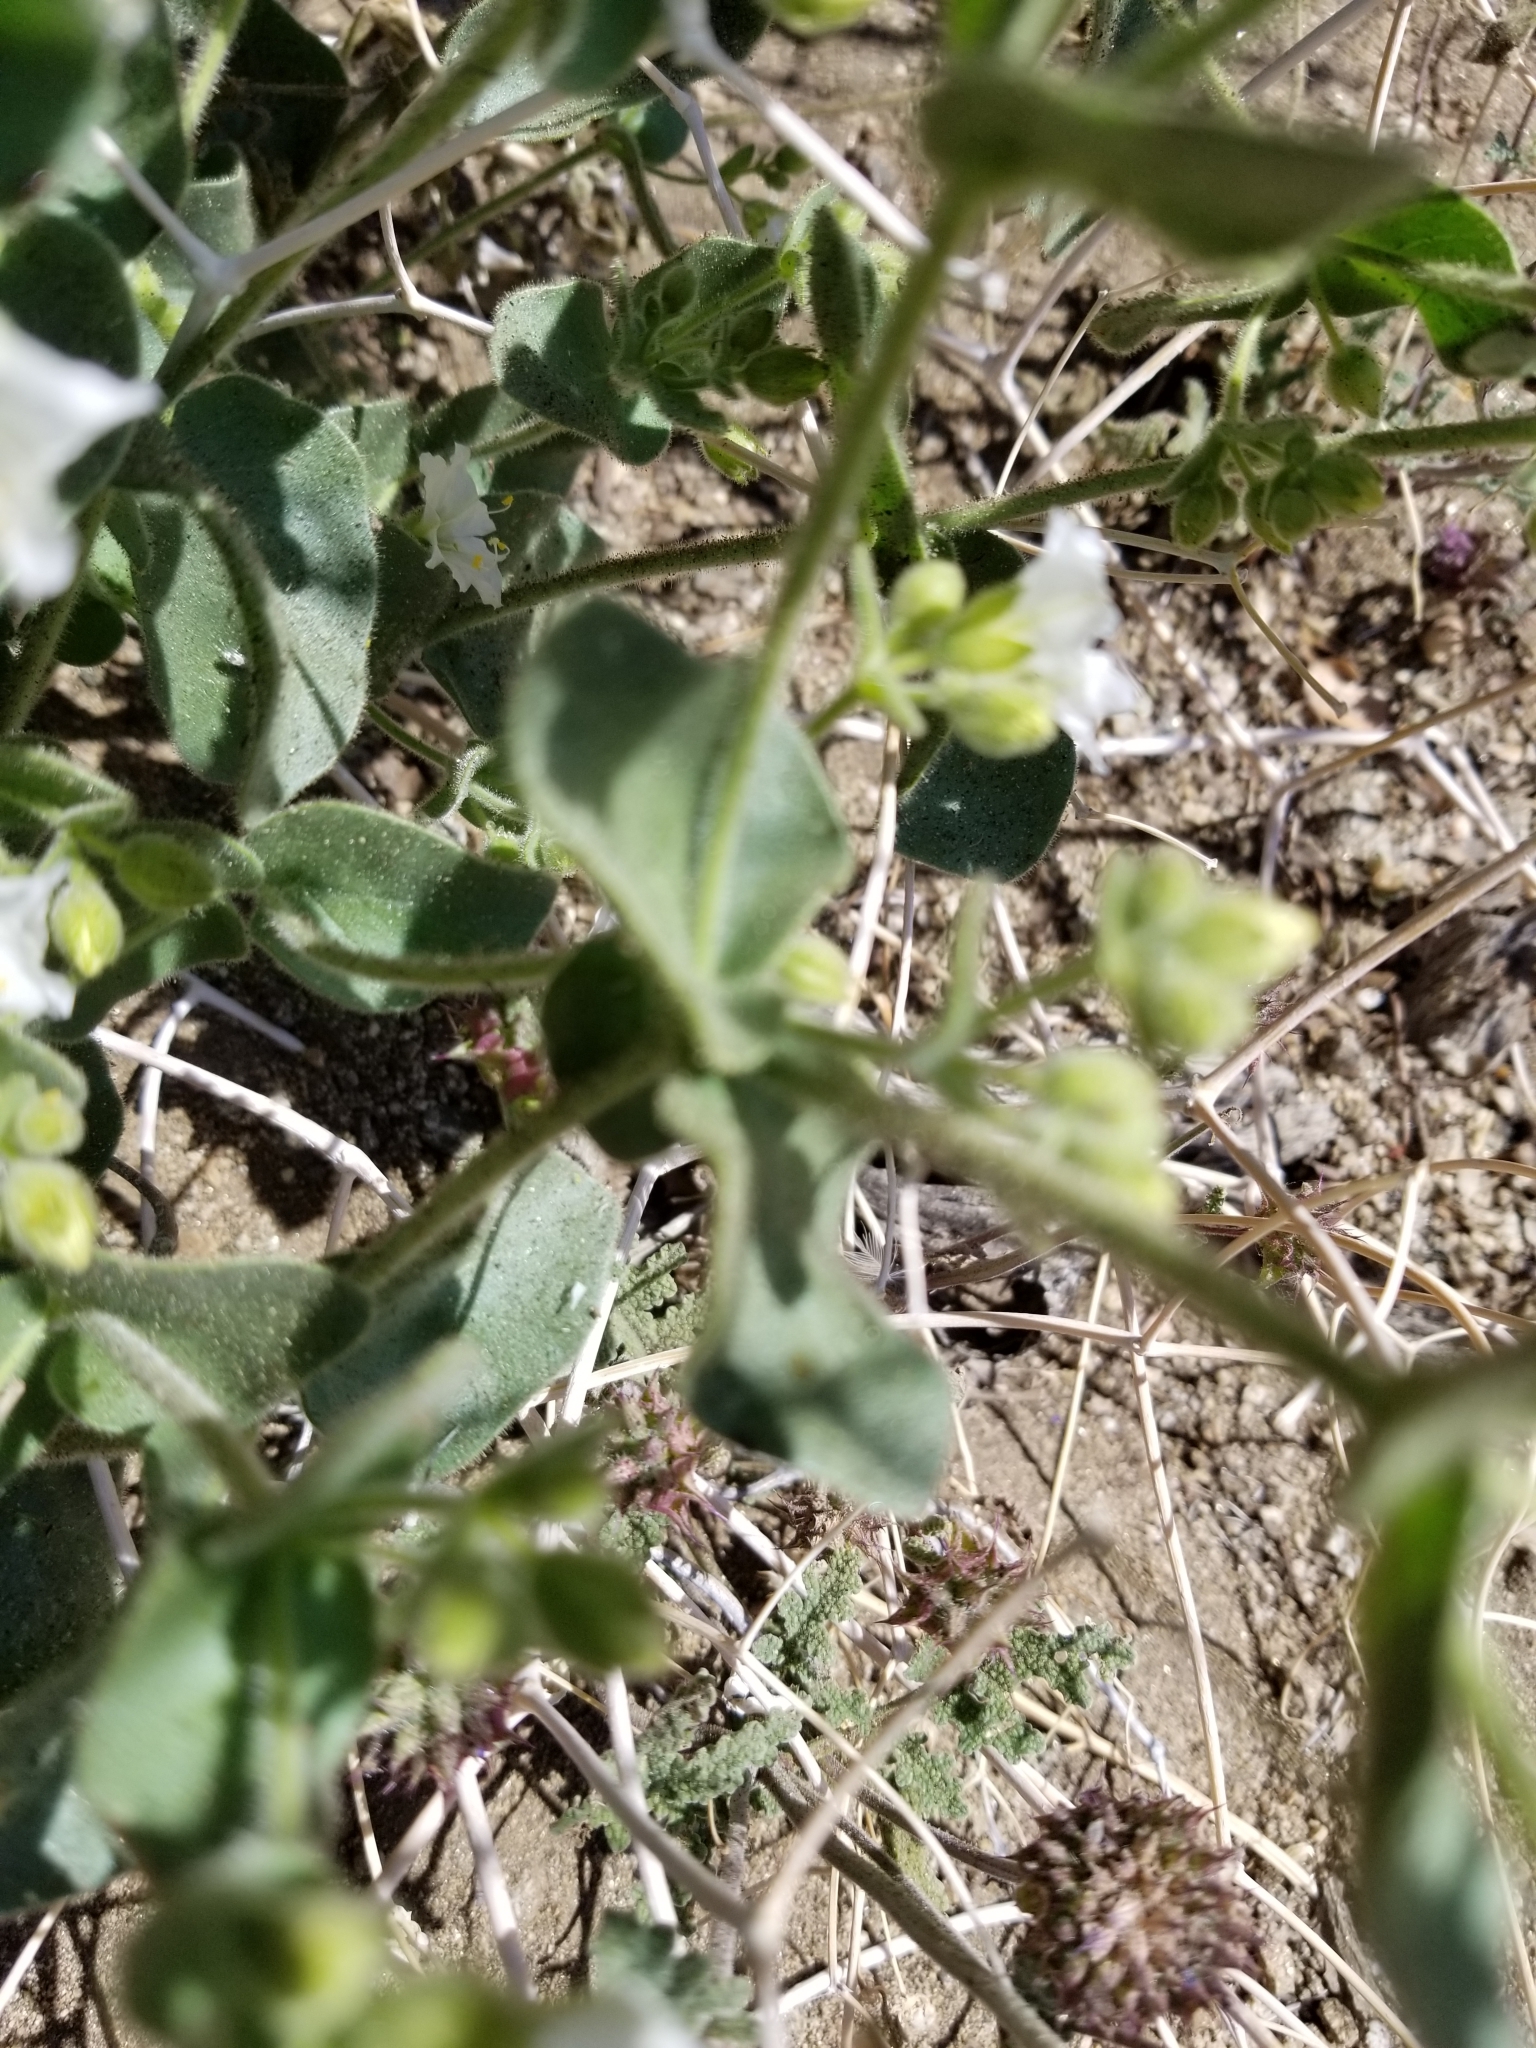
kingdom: Plantae
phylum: Tracheophyta
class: Magnoliopsida
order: Caryophyllales
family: Nyctaginaceae
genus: Mirabilis
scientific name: Mirabilis laevis
